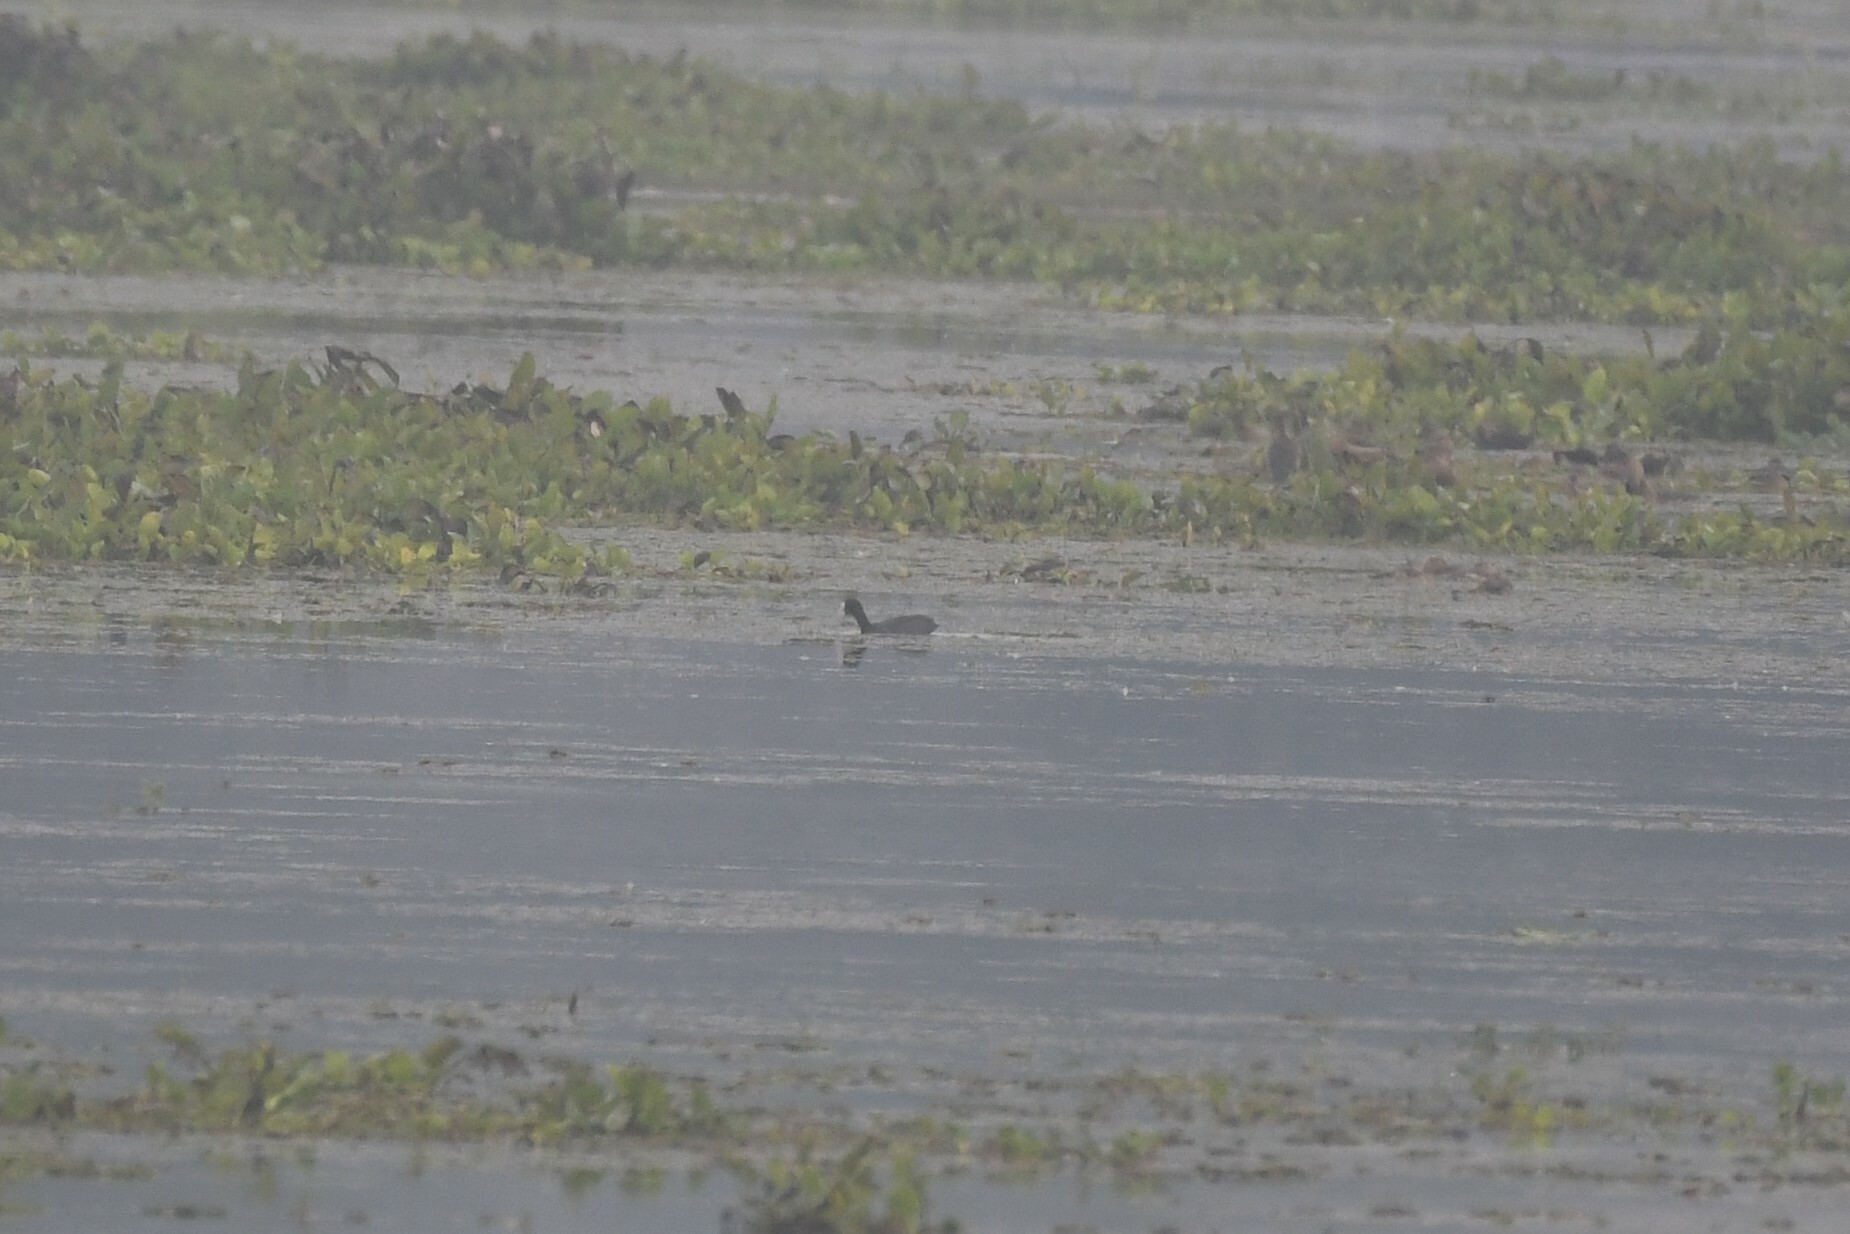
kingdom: Animalia
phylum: Chordata
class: Aves
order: Gruiformes
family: Rallidae
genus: Fulica
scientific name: Fulica atra
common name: Eurasian coot
